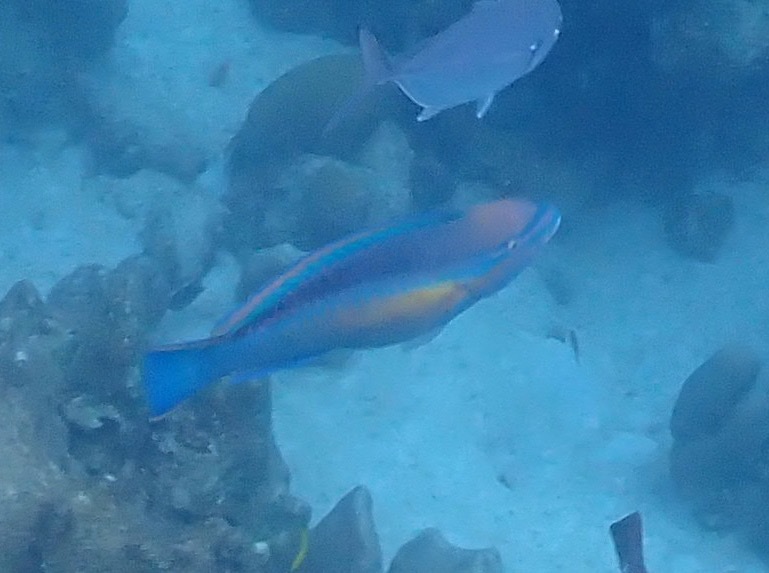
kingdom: Animalia
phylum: Chordata
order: Perciformes
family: Scaridae
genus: Scarus
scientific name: Scarus taeniopterus
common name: Princess parrotfish
